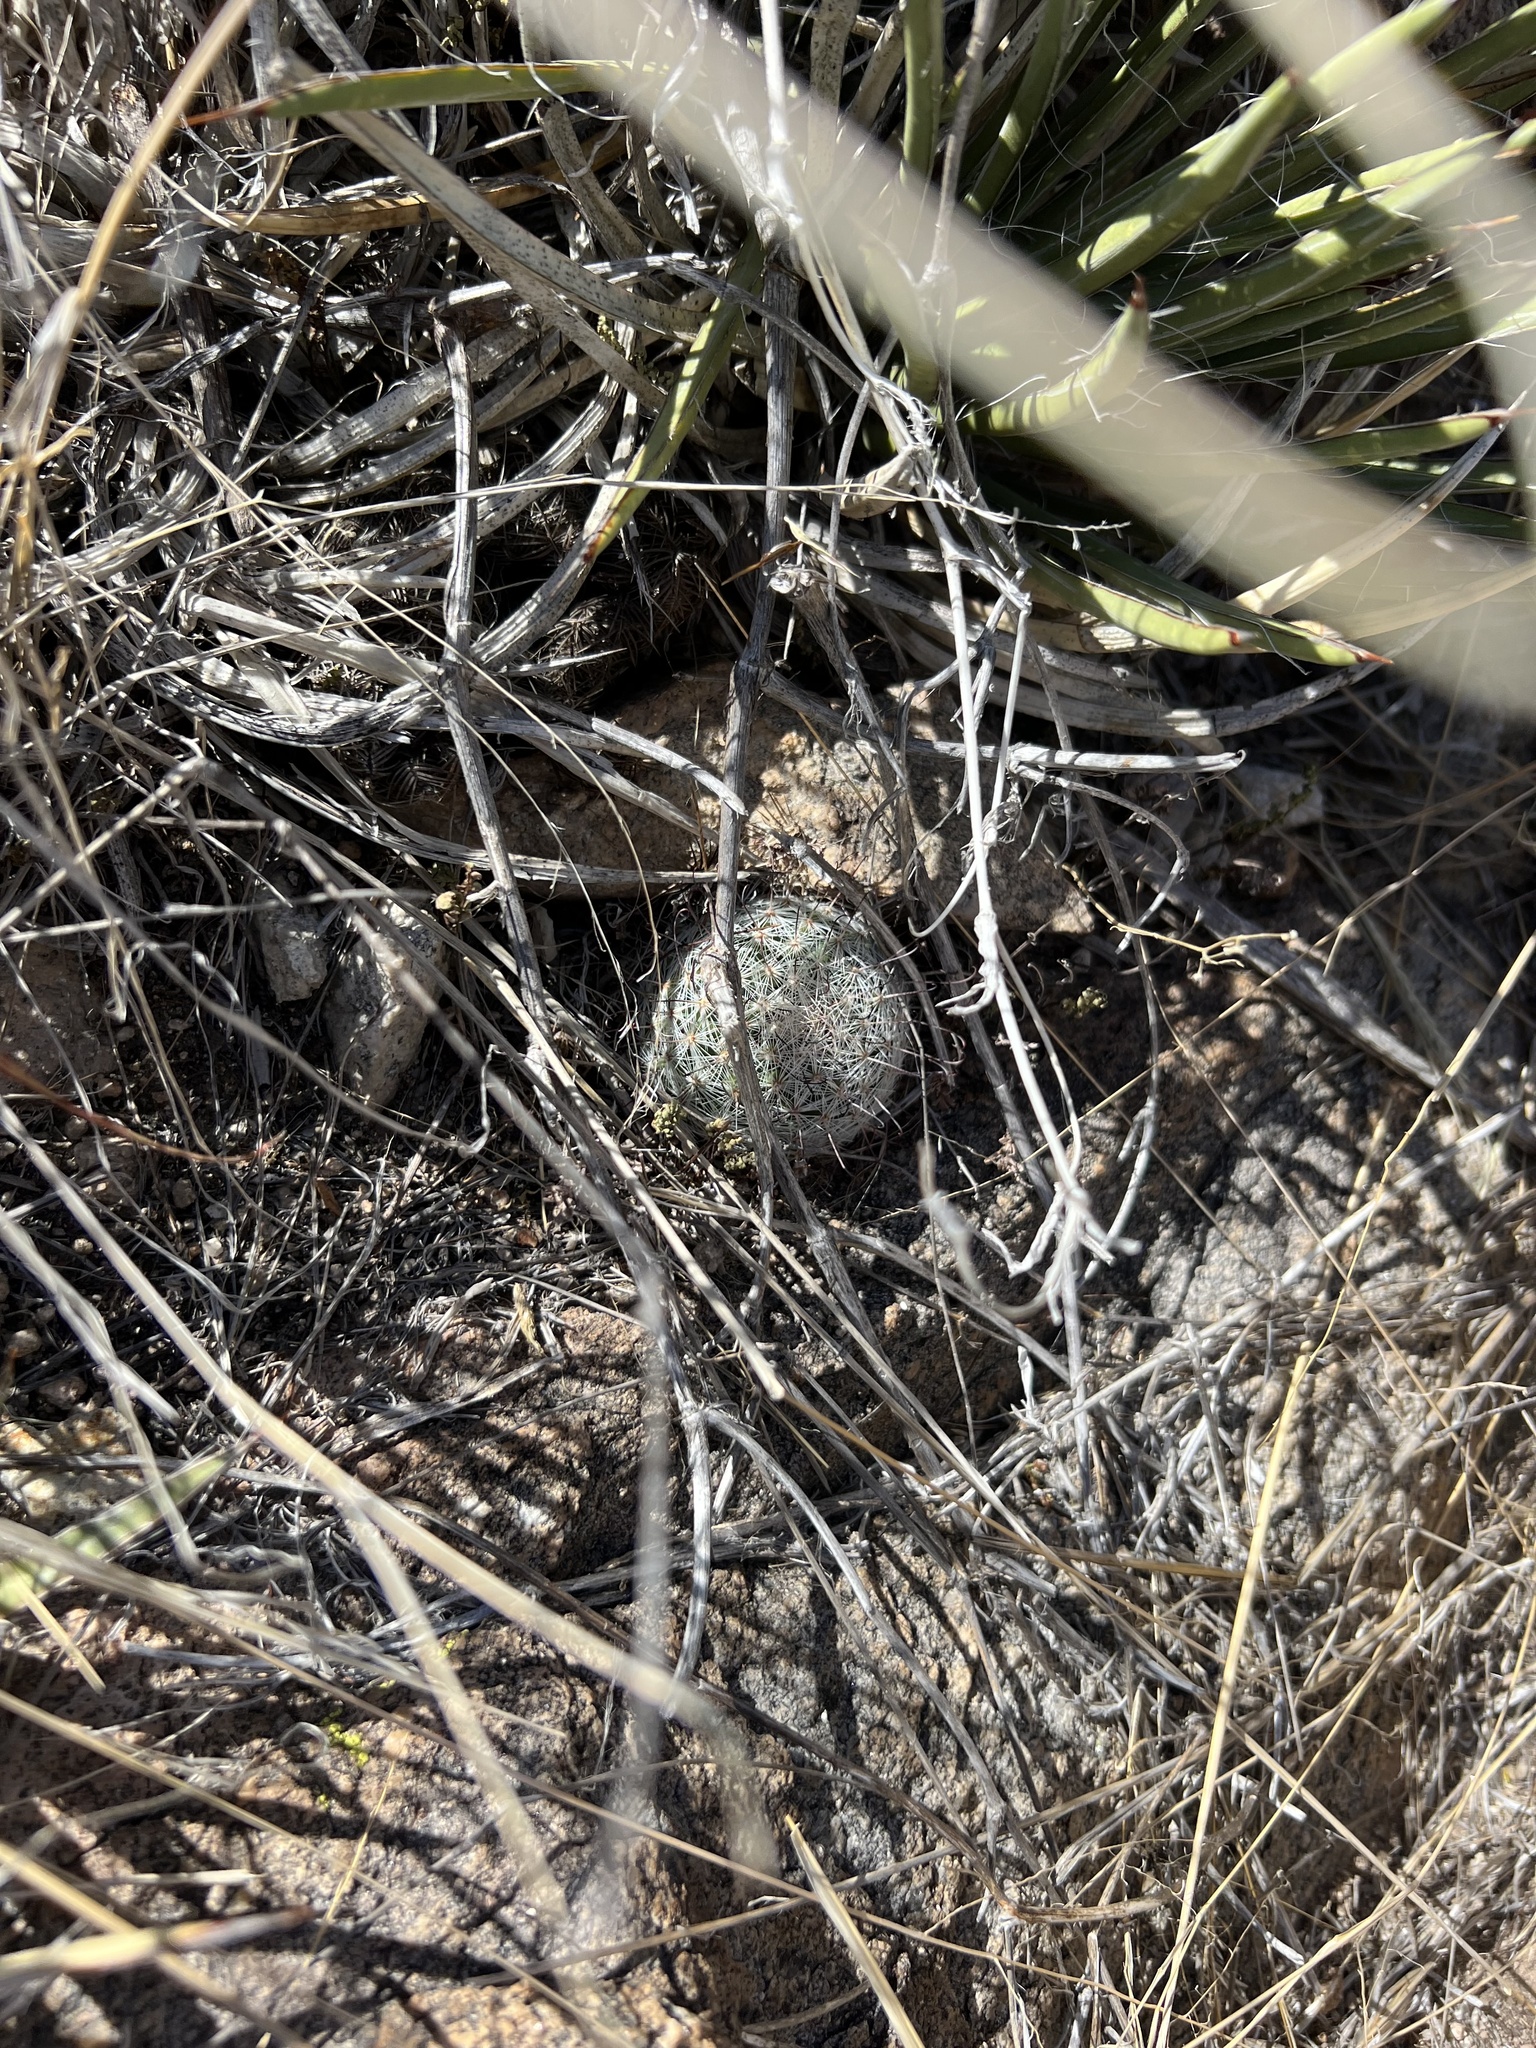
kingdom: Plantae
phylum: Tracheophyta
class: Magnoliopsida
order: Caryophyllales
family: Cactaceae
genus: Cochemiea
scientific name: Cochemiea grahamii
